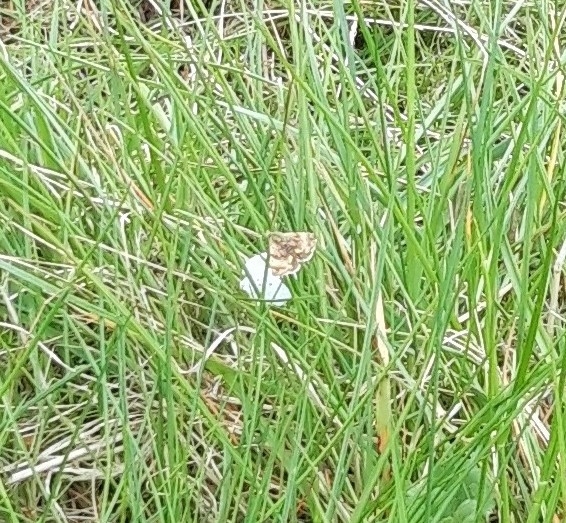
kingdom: Animalia
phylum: Arthropoda
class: Insecta
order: Lepidoptera
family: Noctuidae
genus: Panemeria
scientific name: Panemeria tenebrata
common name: Small yellow underwing
